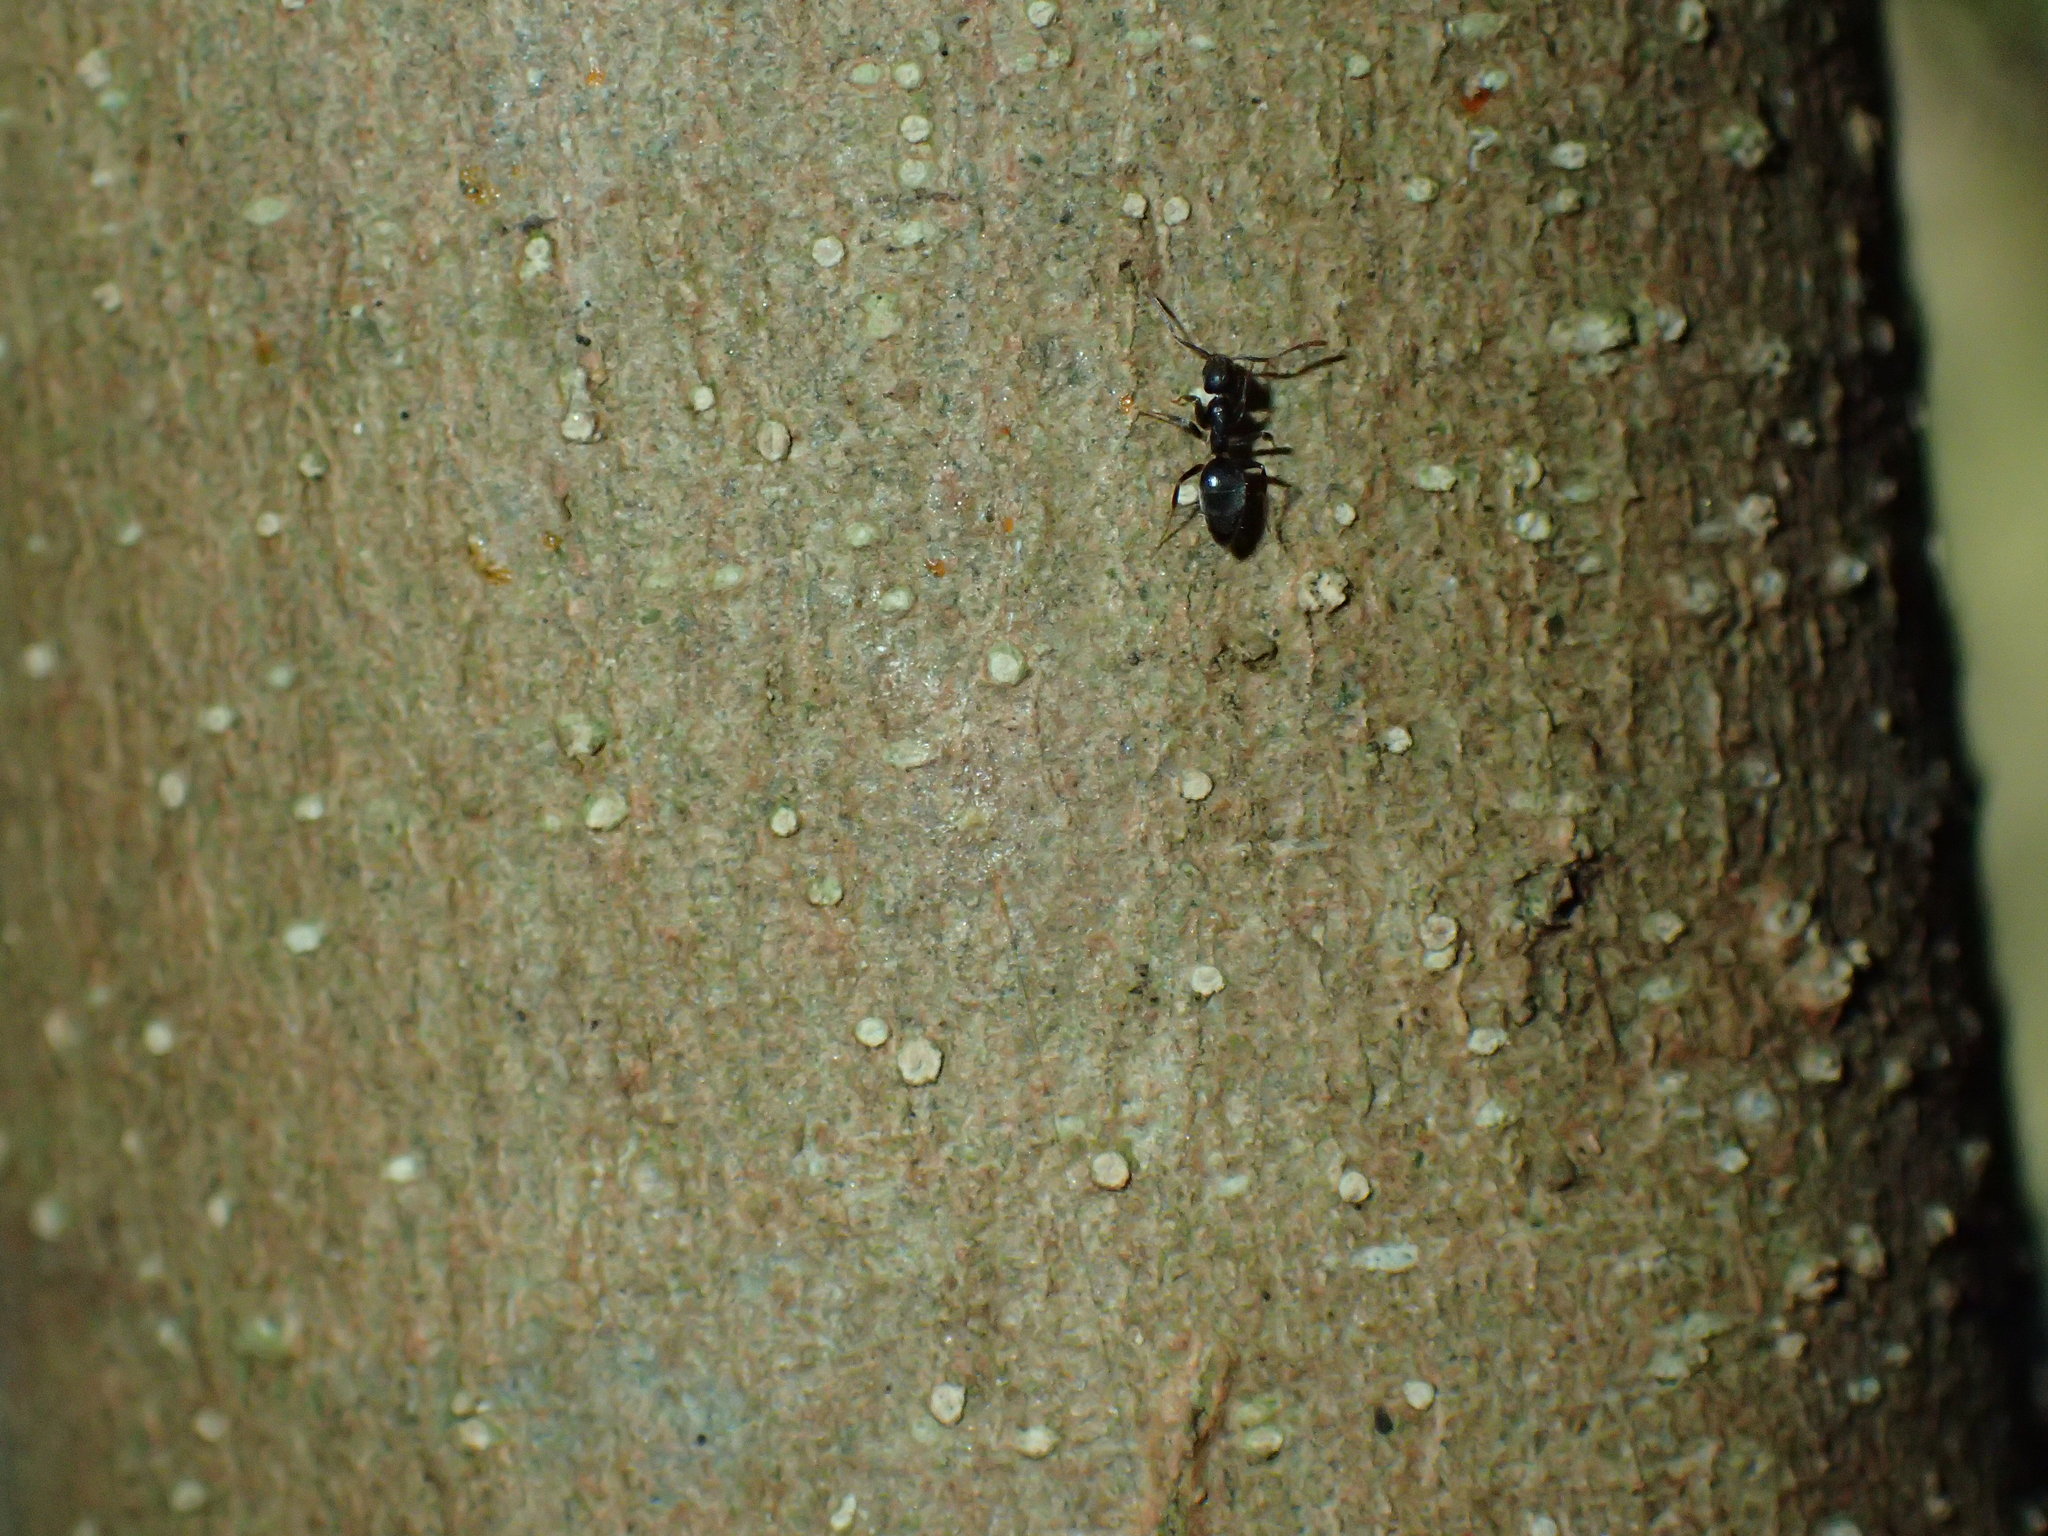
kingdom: Animalia
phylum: Arthropoda
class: Insecta
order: Hymenoptera
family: Formicidae
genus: Tapinoma
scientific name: Tapinoma pallipes
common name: Ant
